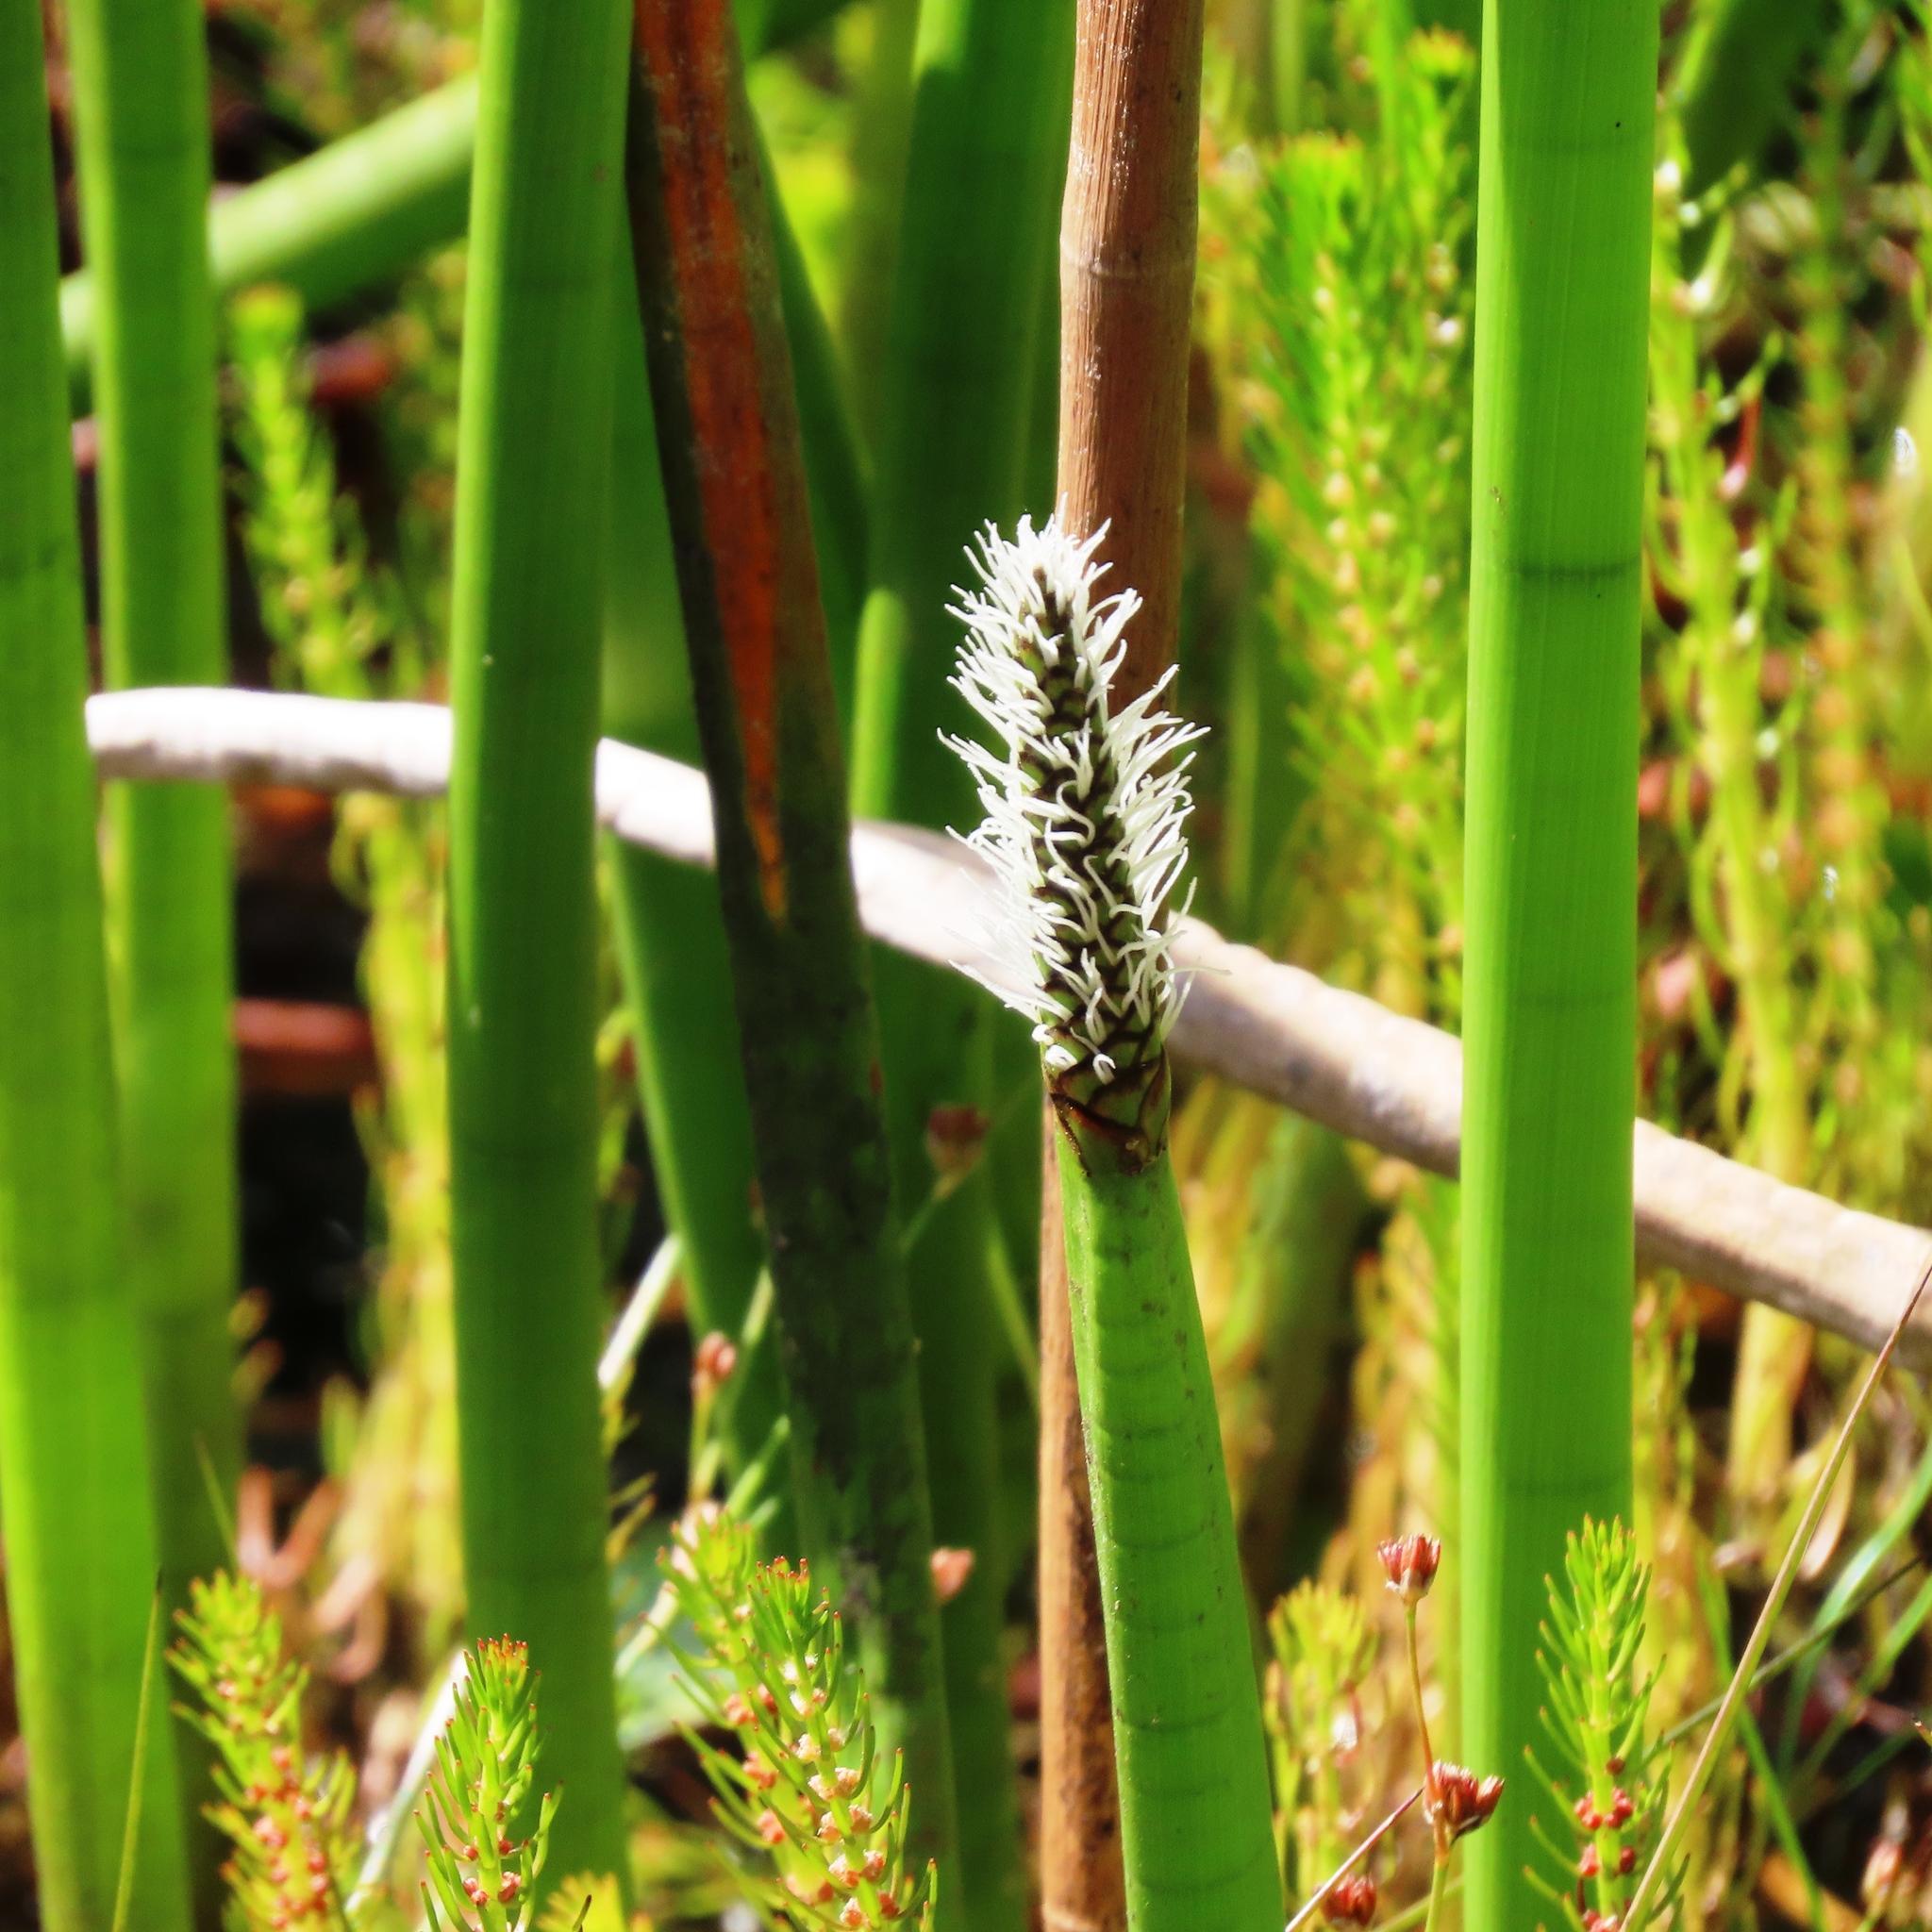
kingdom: Plantae
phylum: Tracheophyta
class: Liliopsida
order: Poales
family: Cyperaceae
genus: Eleocharis
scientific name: Eleocharis acuta
